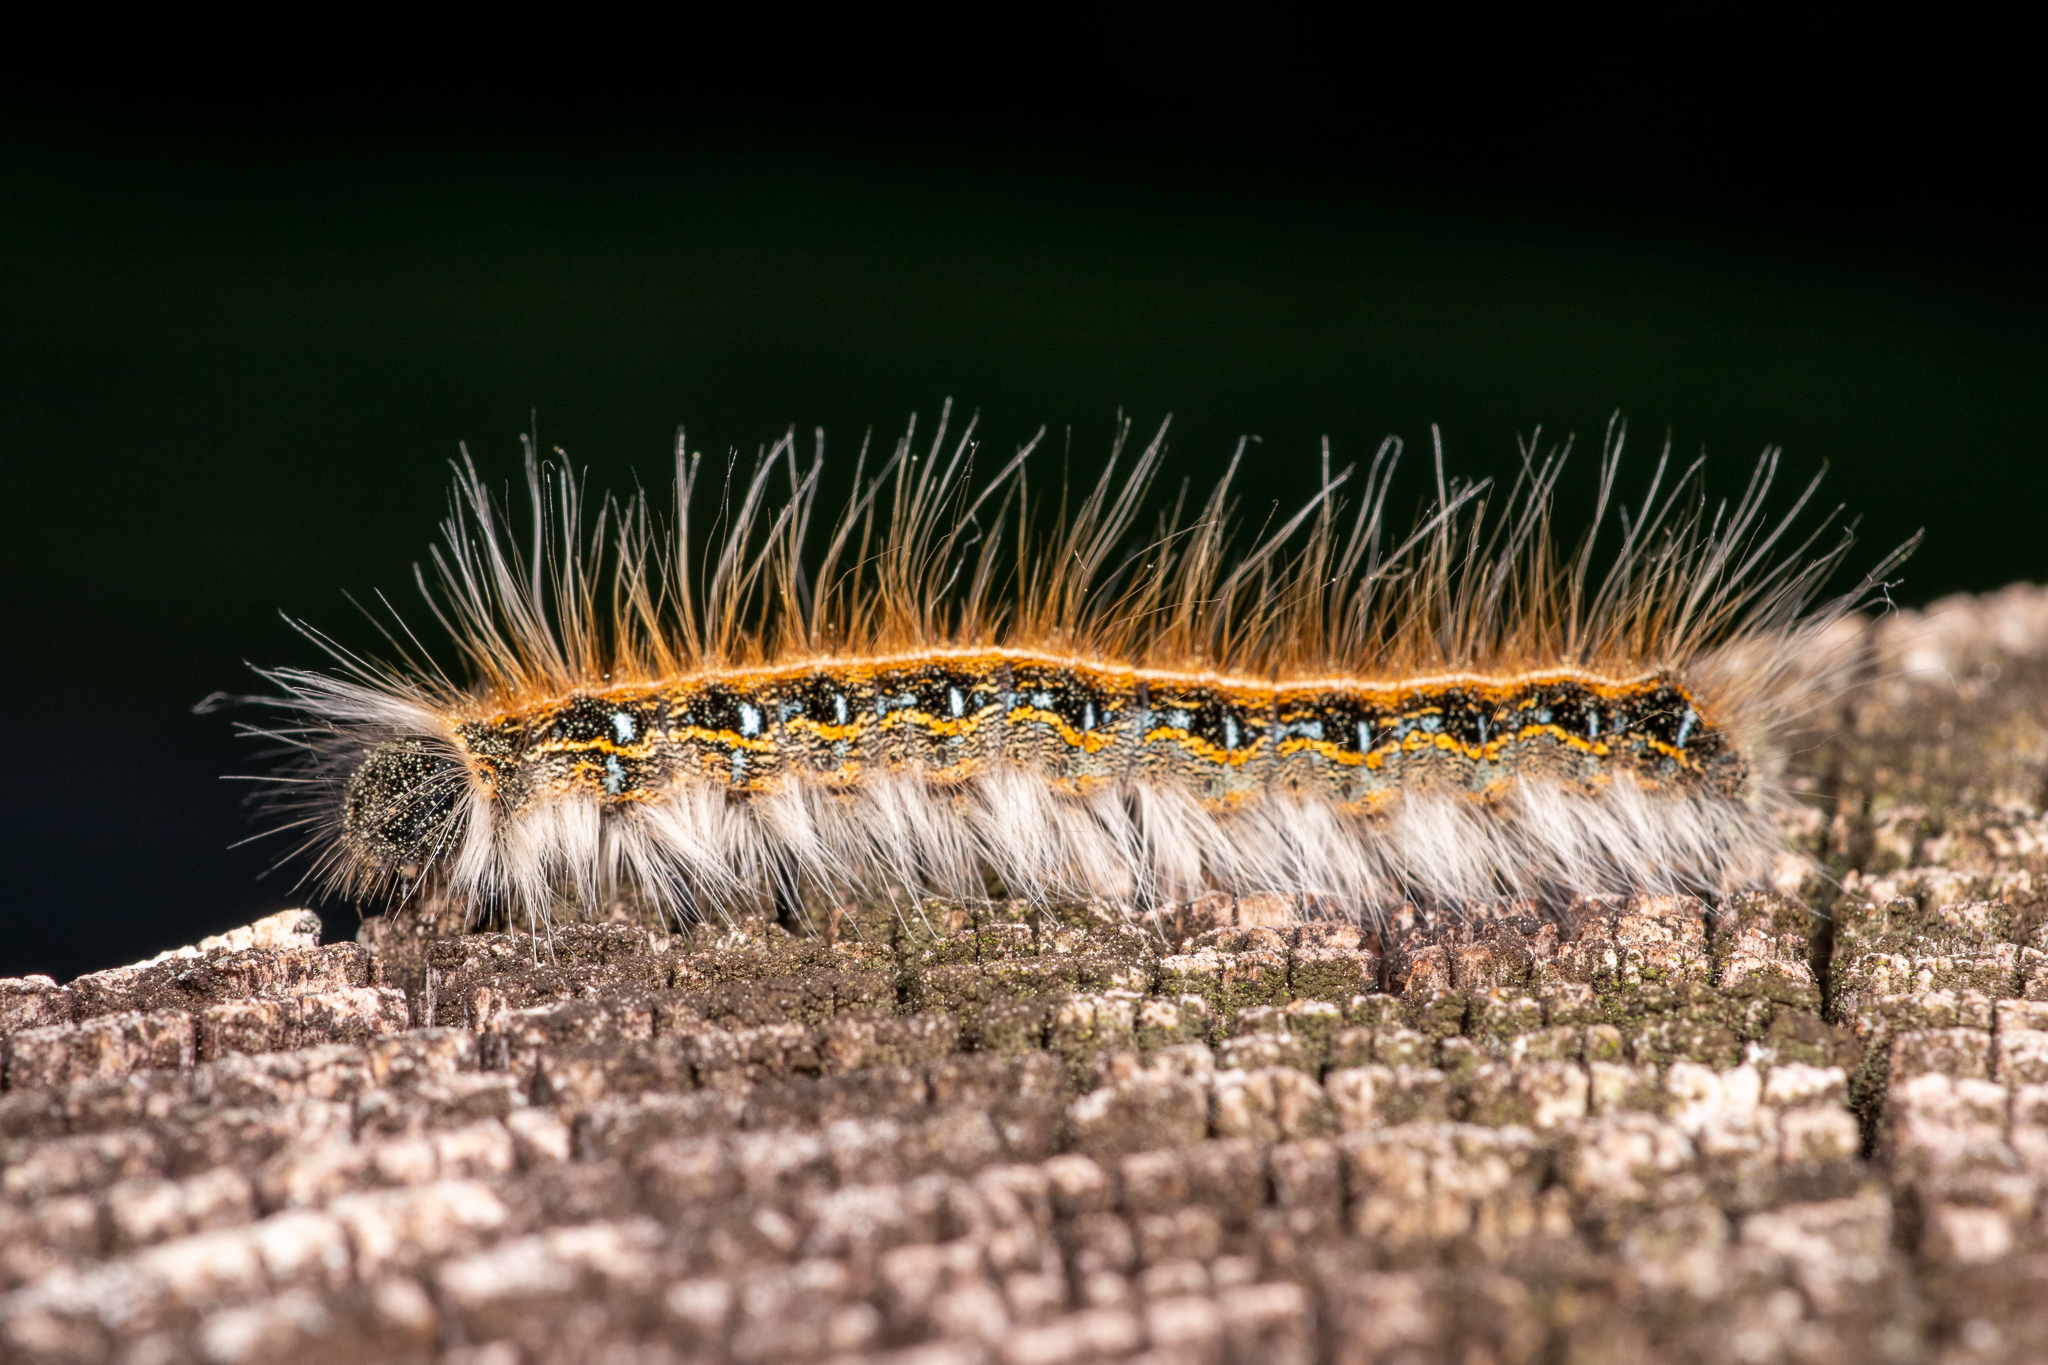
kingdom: Animalia
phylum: Arthropoda
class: Insecta
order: Lepidoptera
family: Lasiocampidae
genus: Malacosoma
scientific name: Malacosoma americana
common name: Eastern tent caterpillar moth
